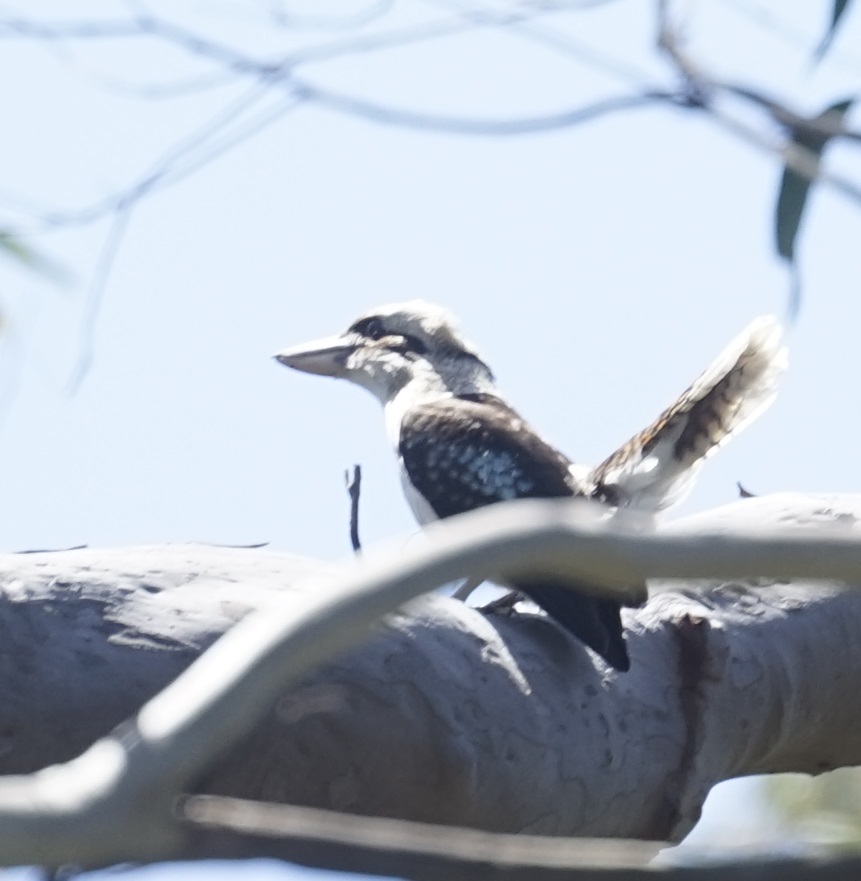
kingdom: Animalia
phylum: Chordata
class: Aves
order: Coraciiformes
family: Alcedinidae
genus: Dacelo
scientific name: Dacelo novaeguineae
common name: Laughing kookaburra
